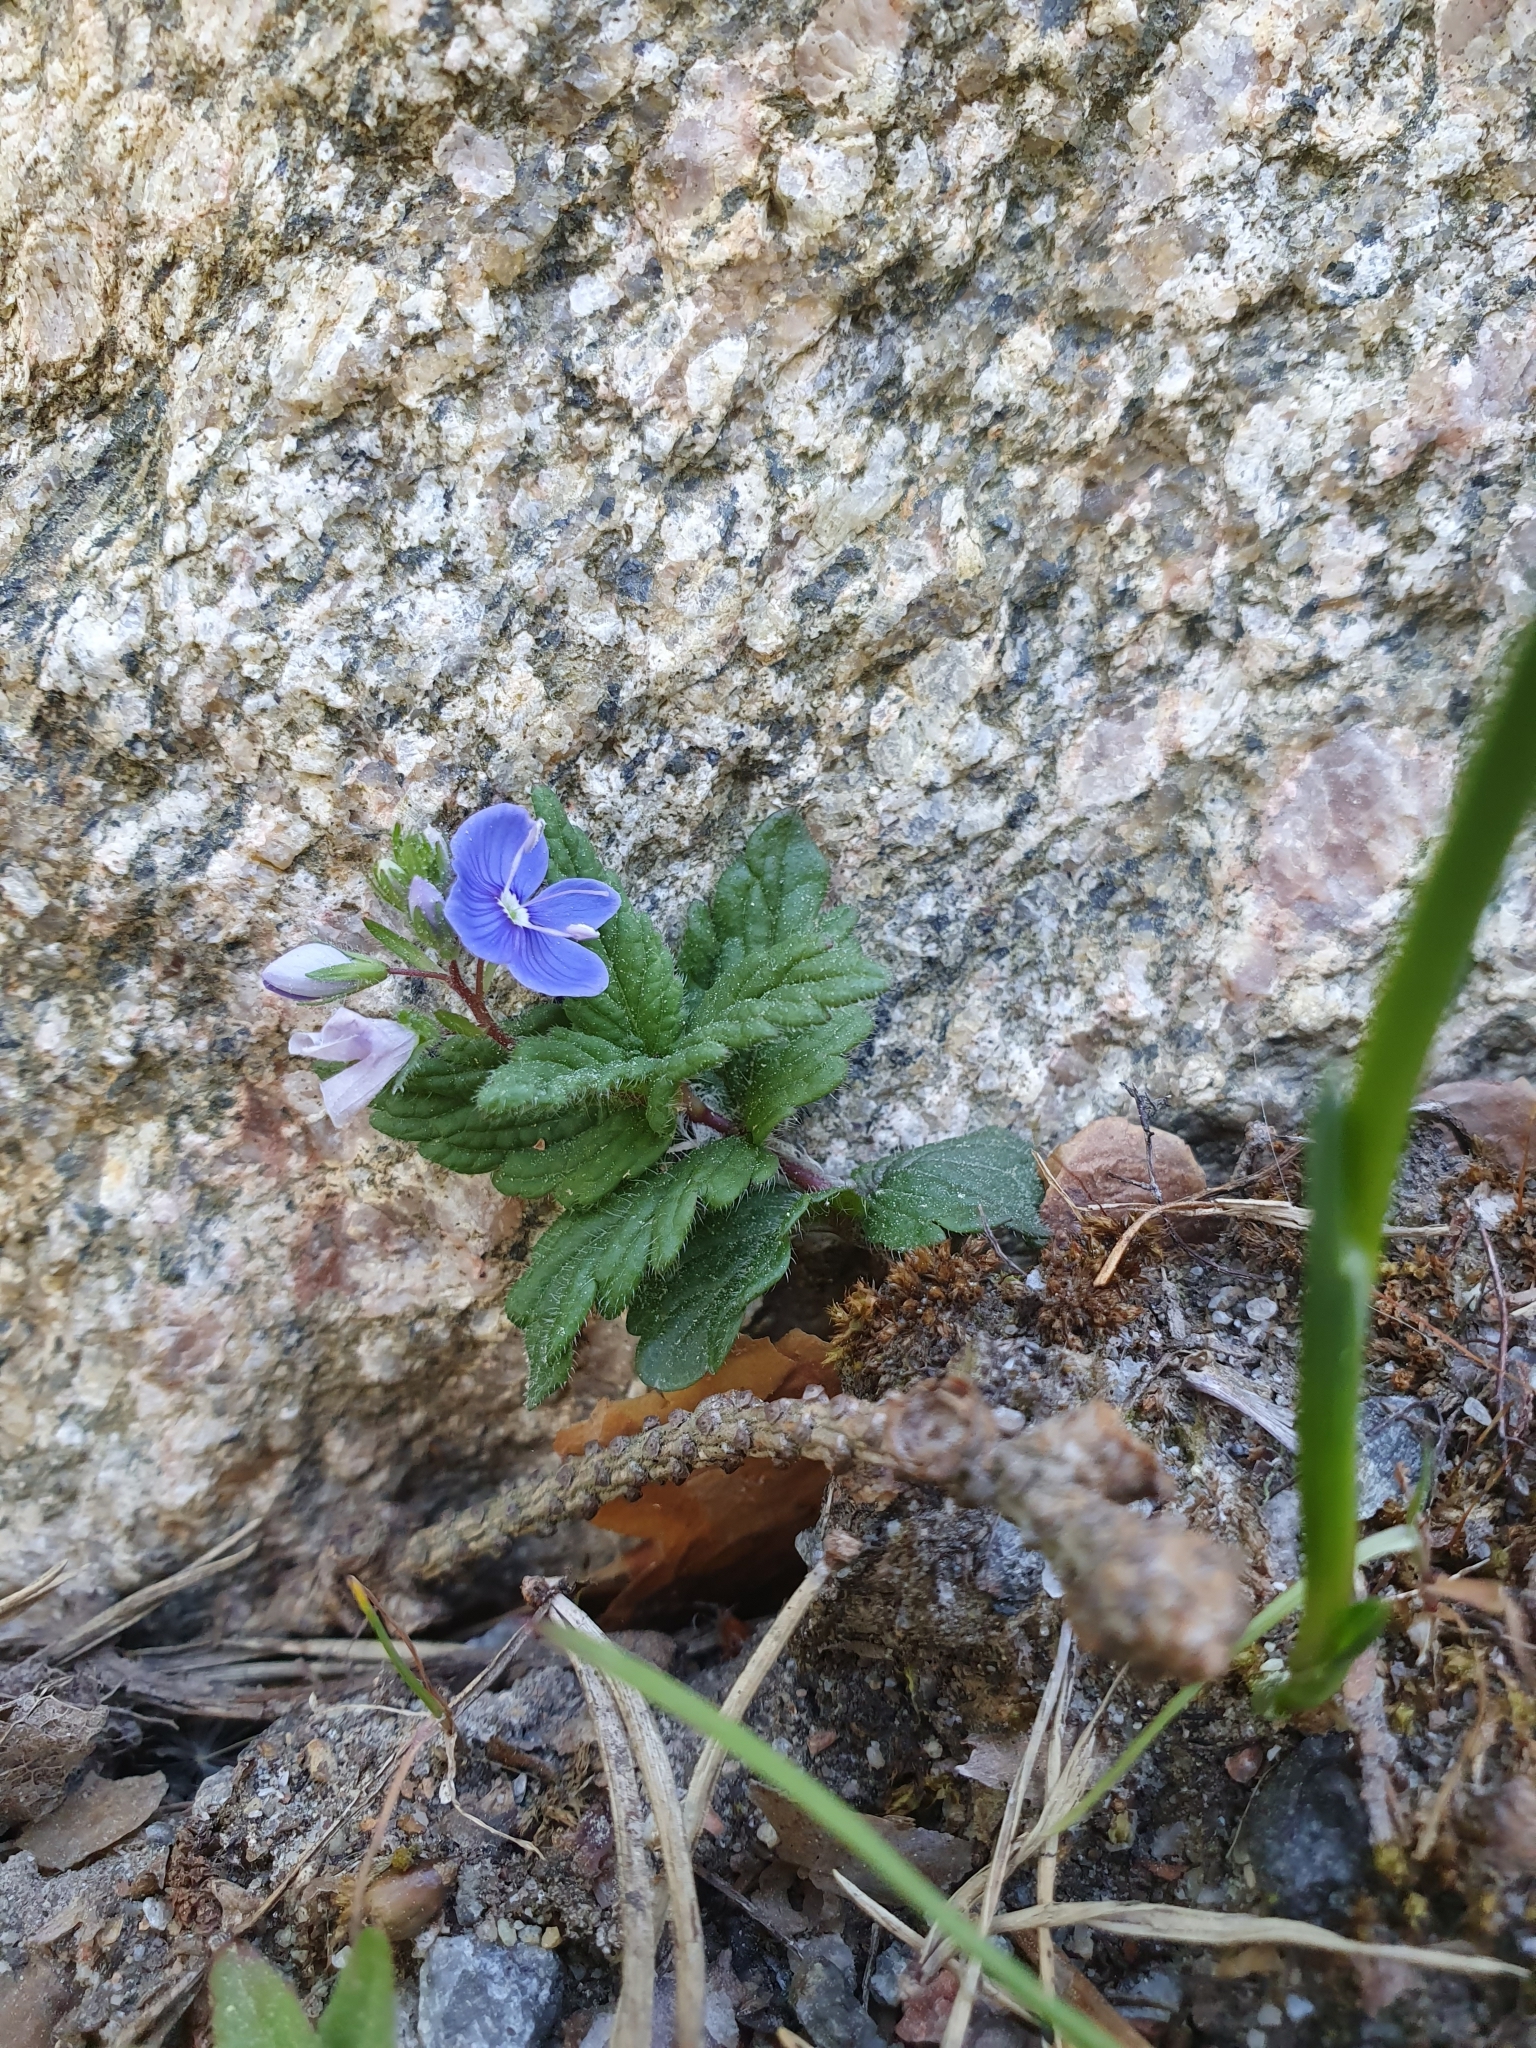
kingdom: Plantae
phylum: Tracheophyta
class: Magnoliopsida
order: Lamiales
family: Plantaginaceae
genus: Veronica
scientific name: Veronica chamaedrys
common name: Germander speedwell
